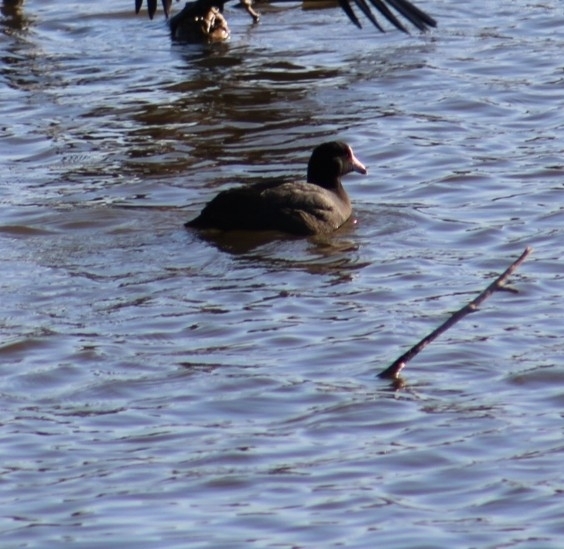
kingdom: Animalia
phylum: Chordata
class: Aves
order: Gruiformes
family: Rallidae
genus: Fulica
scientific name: Fulica americana
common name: American coot
